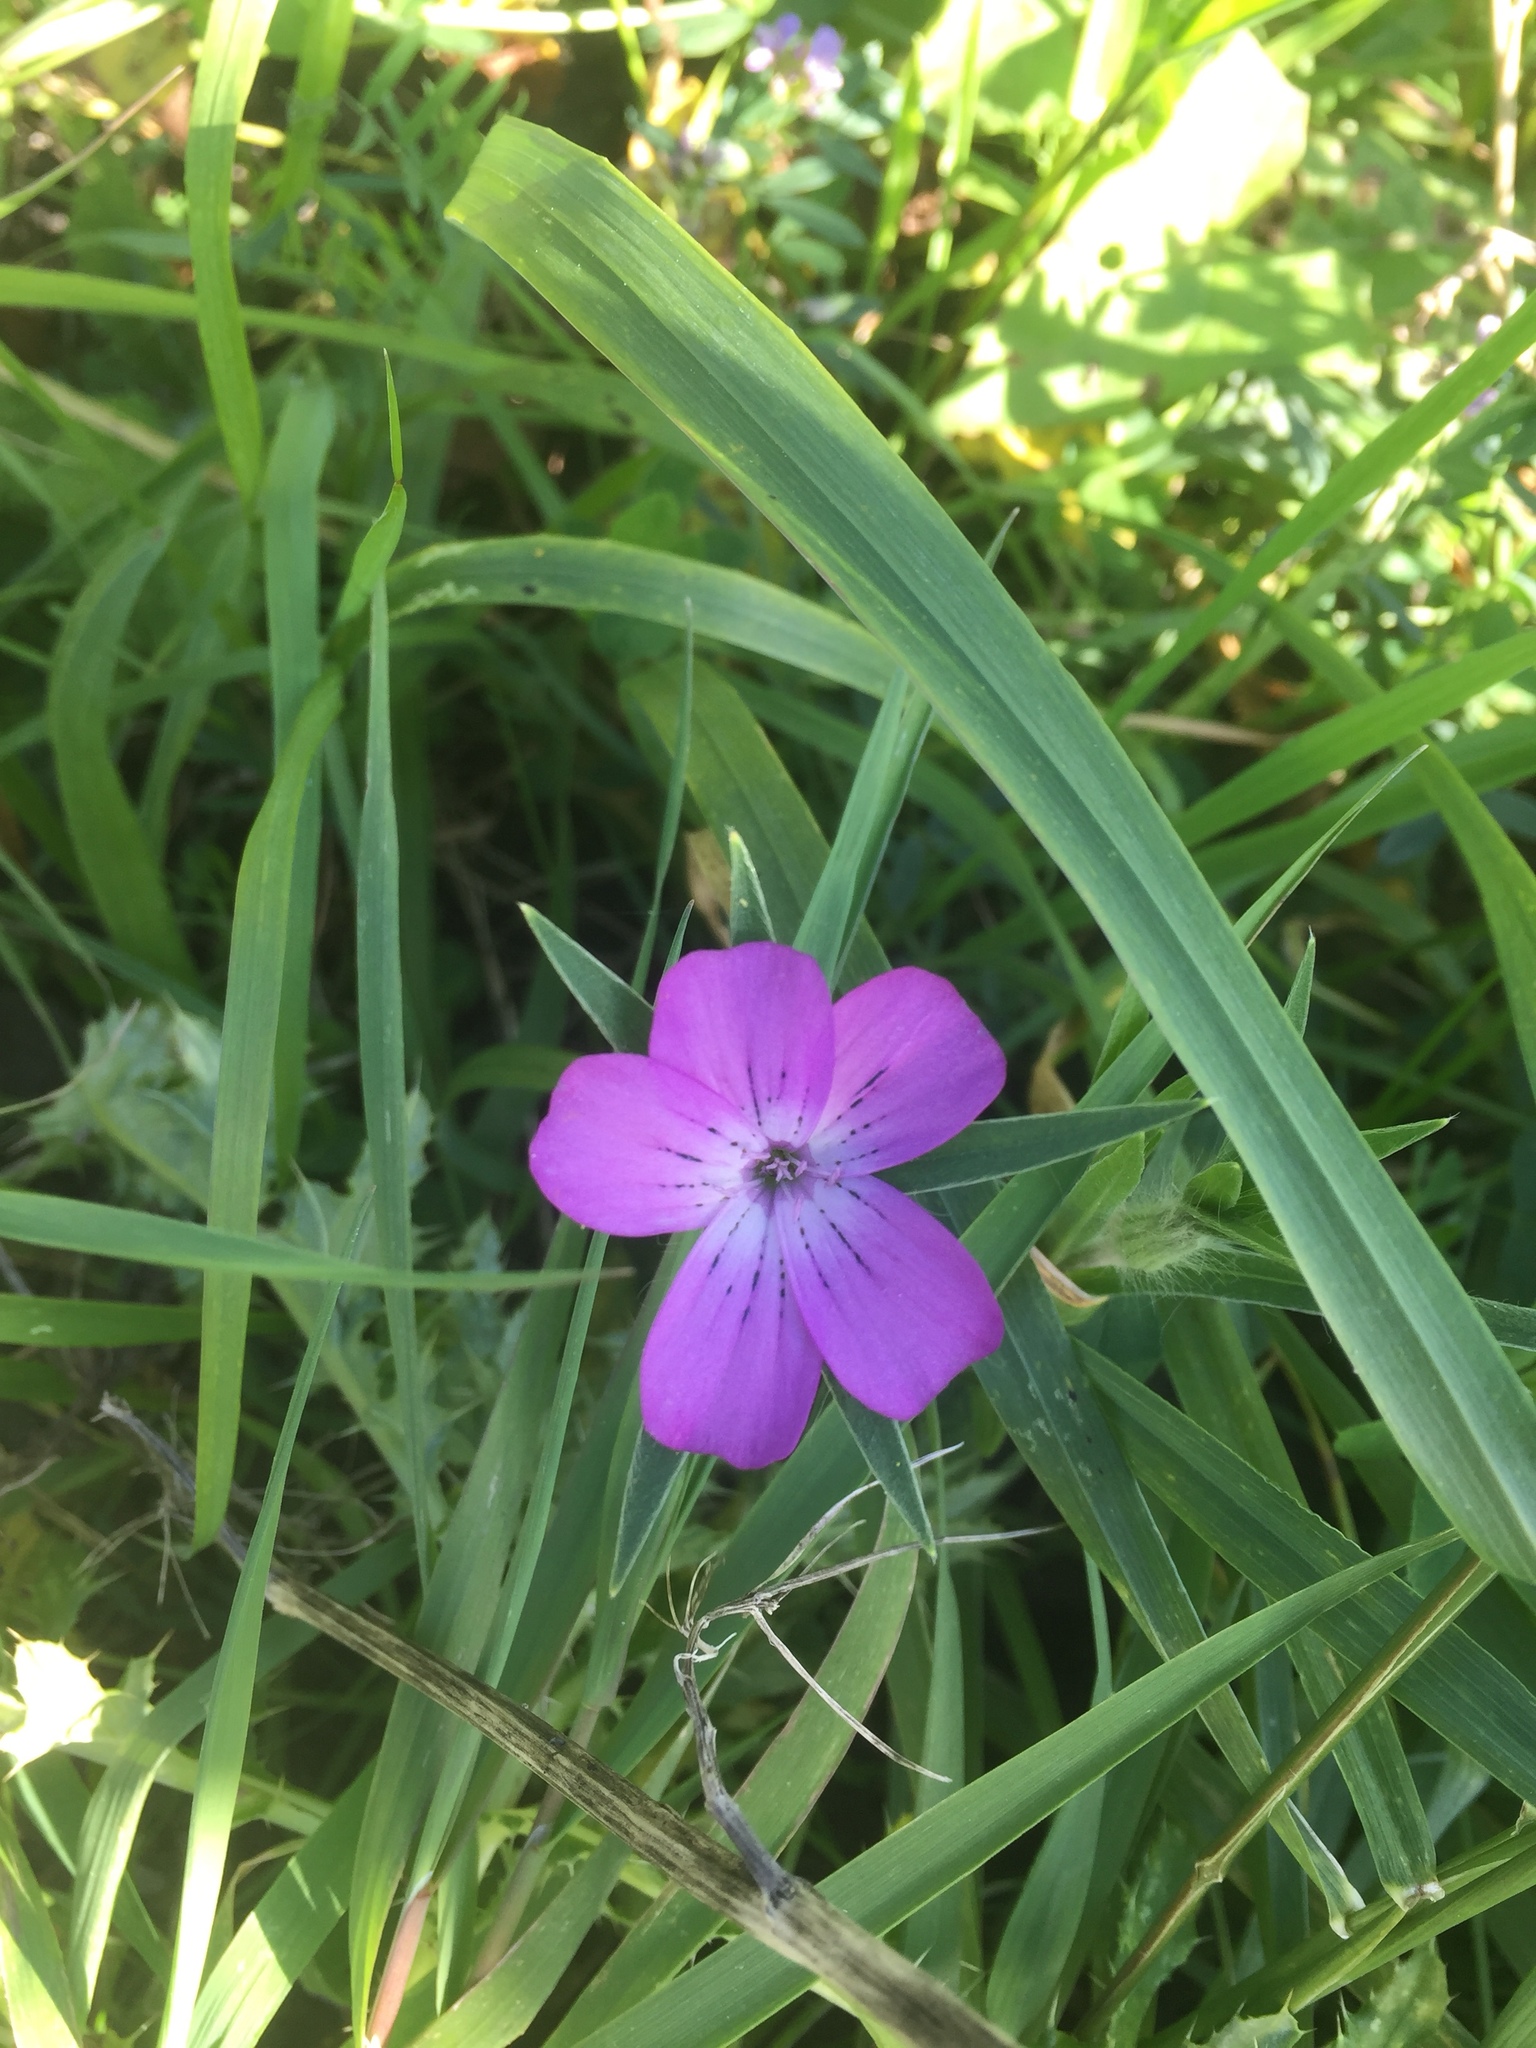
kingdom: Plantae
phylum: Tracheophyta
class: Magnoliopsida
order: Caryophyllales
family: Caryophyllaceae
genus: Agrostemma
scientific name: Agrostemma githago
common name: Common corncockle
